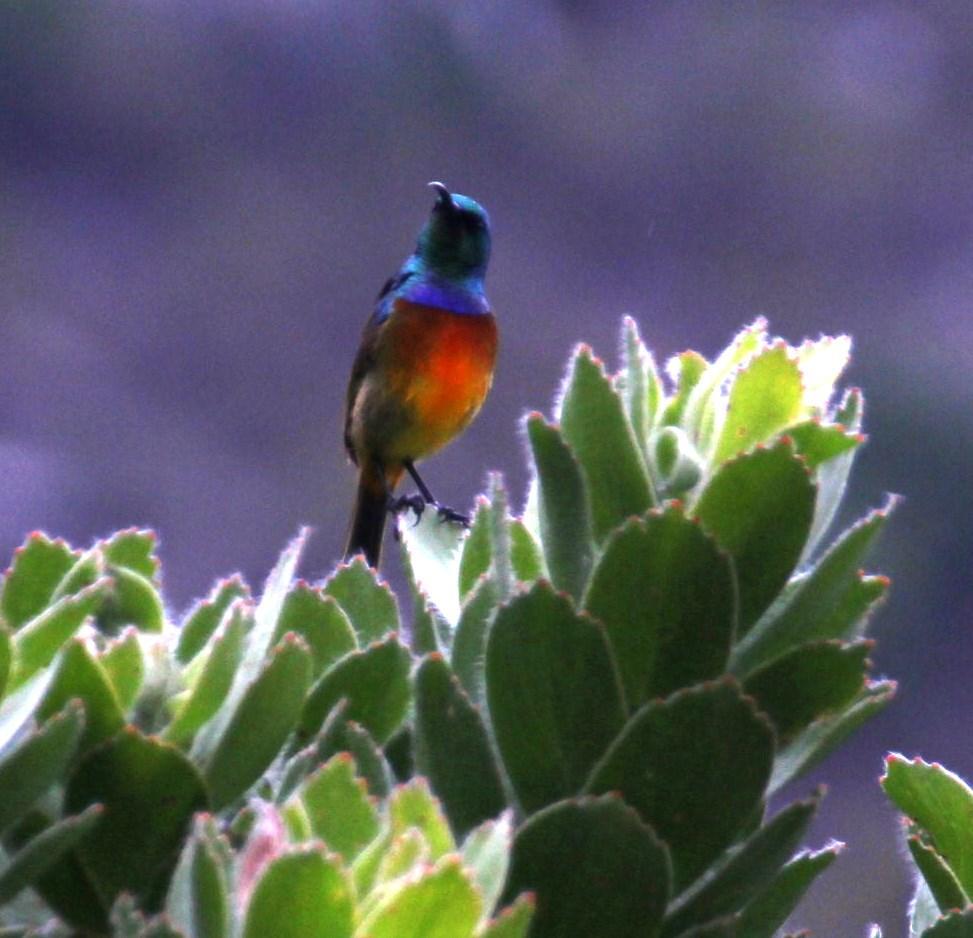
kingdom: Animalia
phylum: Chordata
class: Aves
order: Passeriformes
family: Nectariniidae
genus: Anthobaphes
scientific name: Anthobaphes violacea
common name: Orange-breasted sunbird
